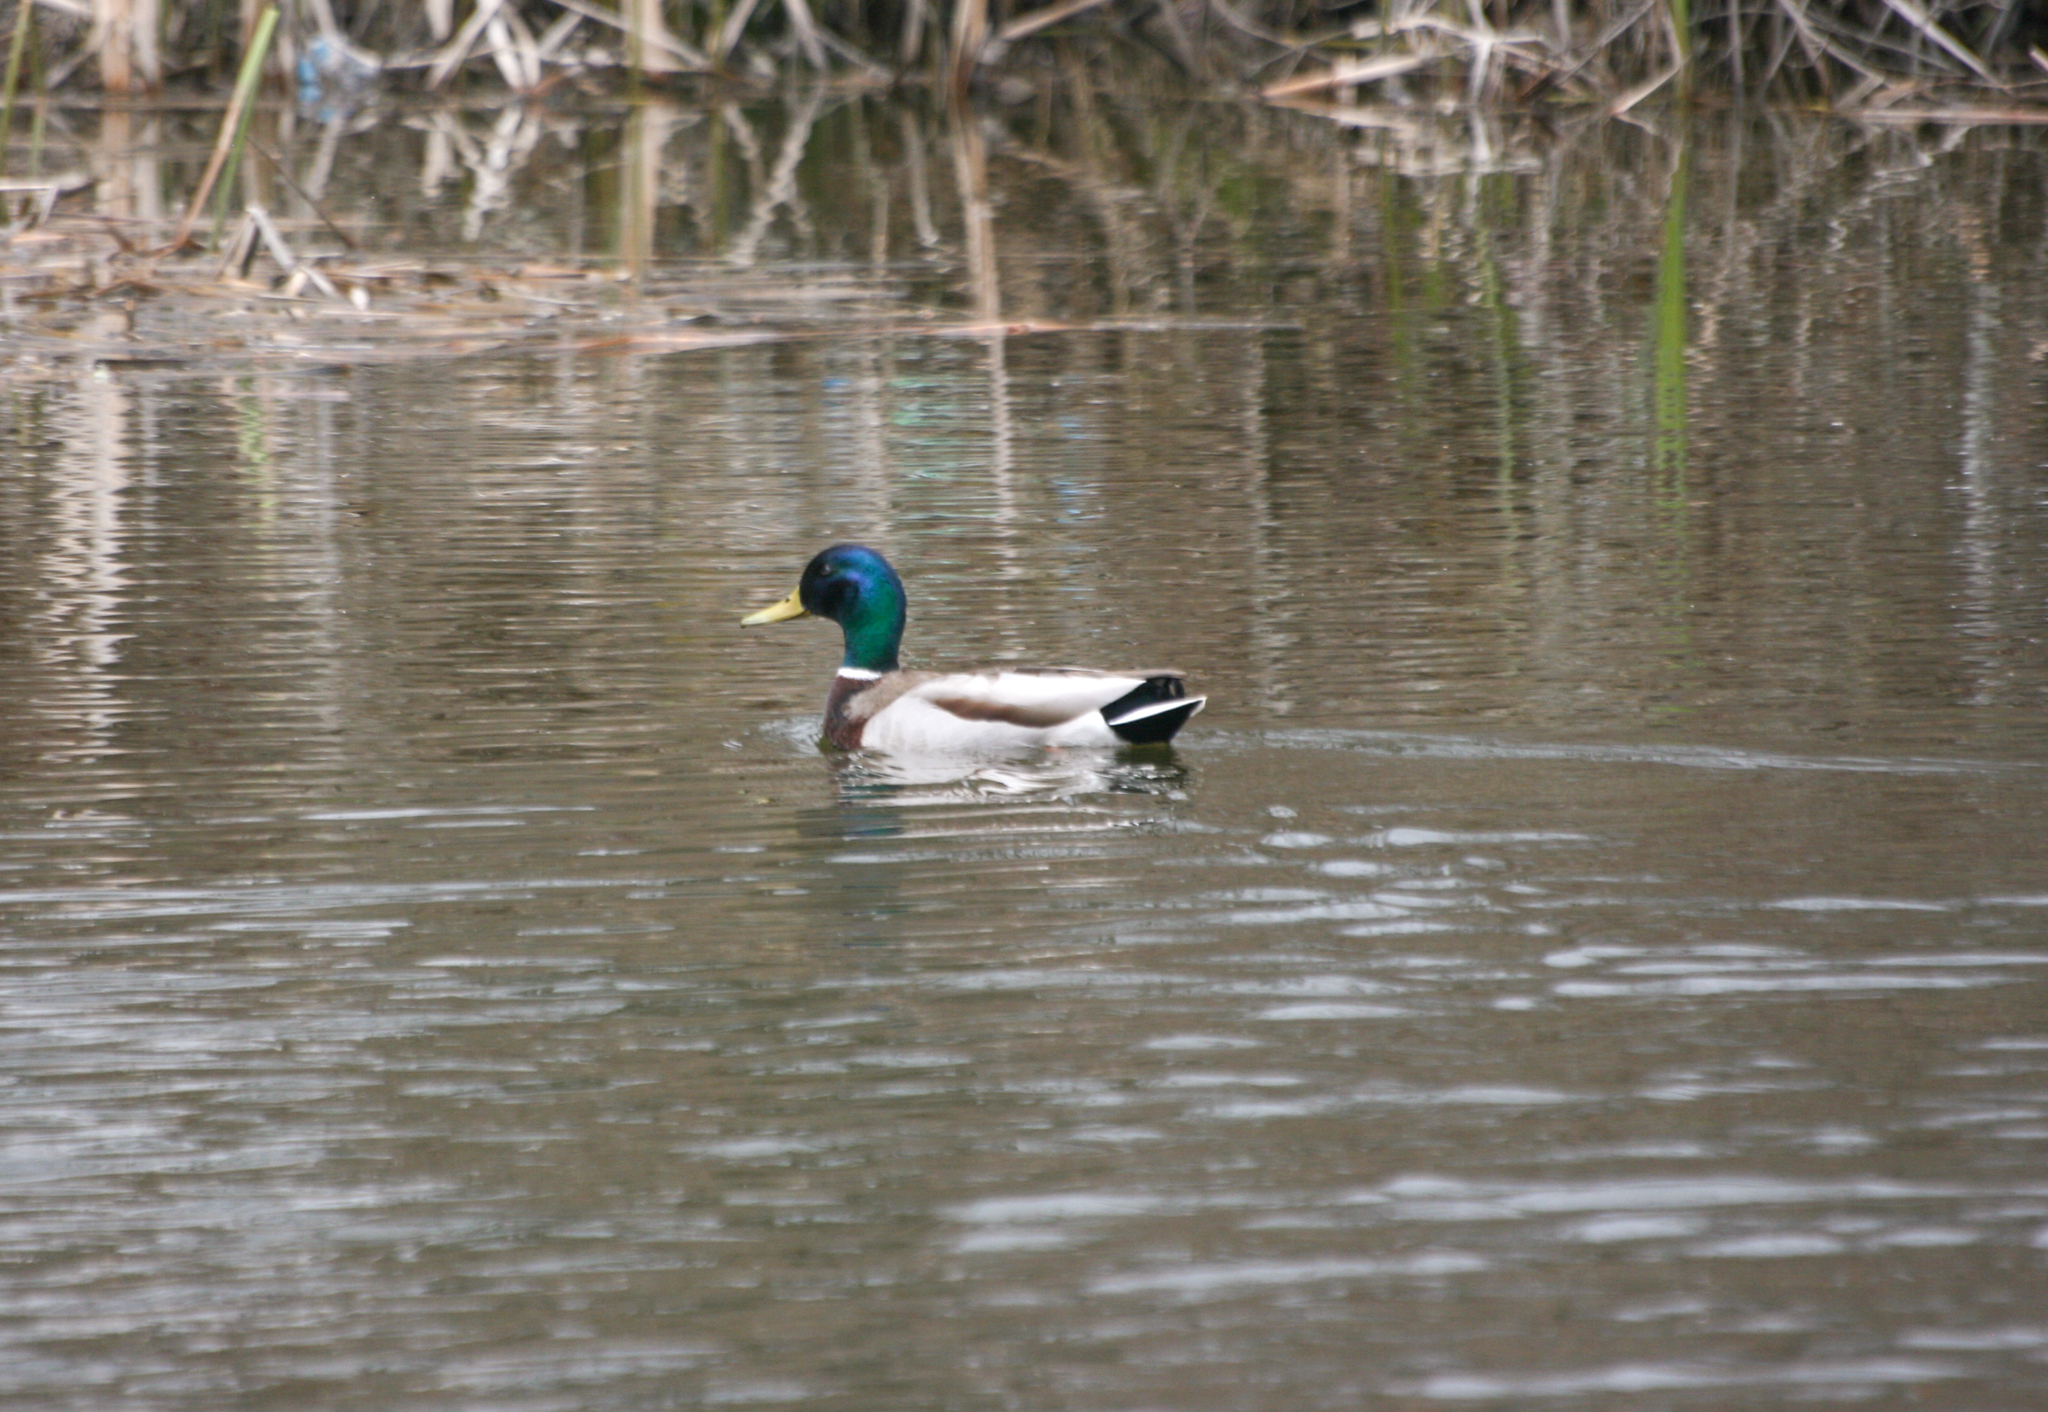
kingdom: Animalia
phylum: Chordata
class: Aves
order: Anseriformes
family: Anatidae
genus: Anas
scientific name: Anas platyrhynchos
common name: Mallard
